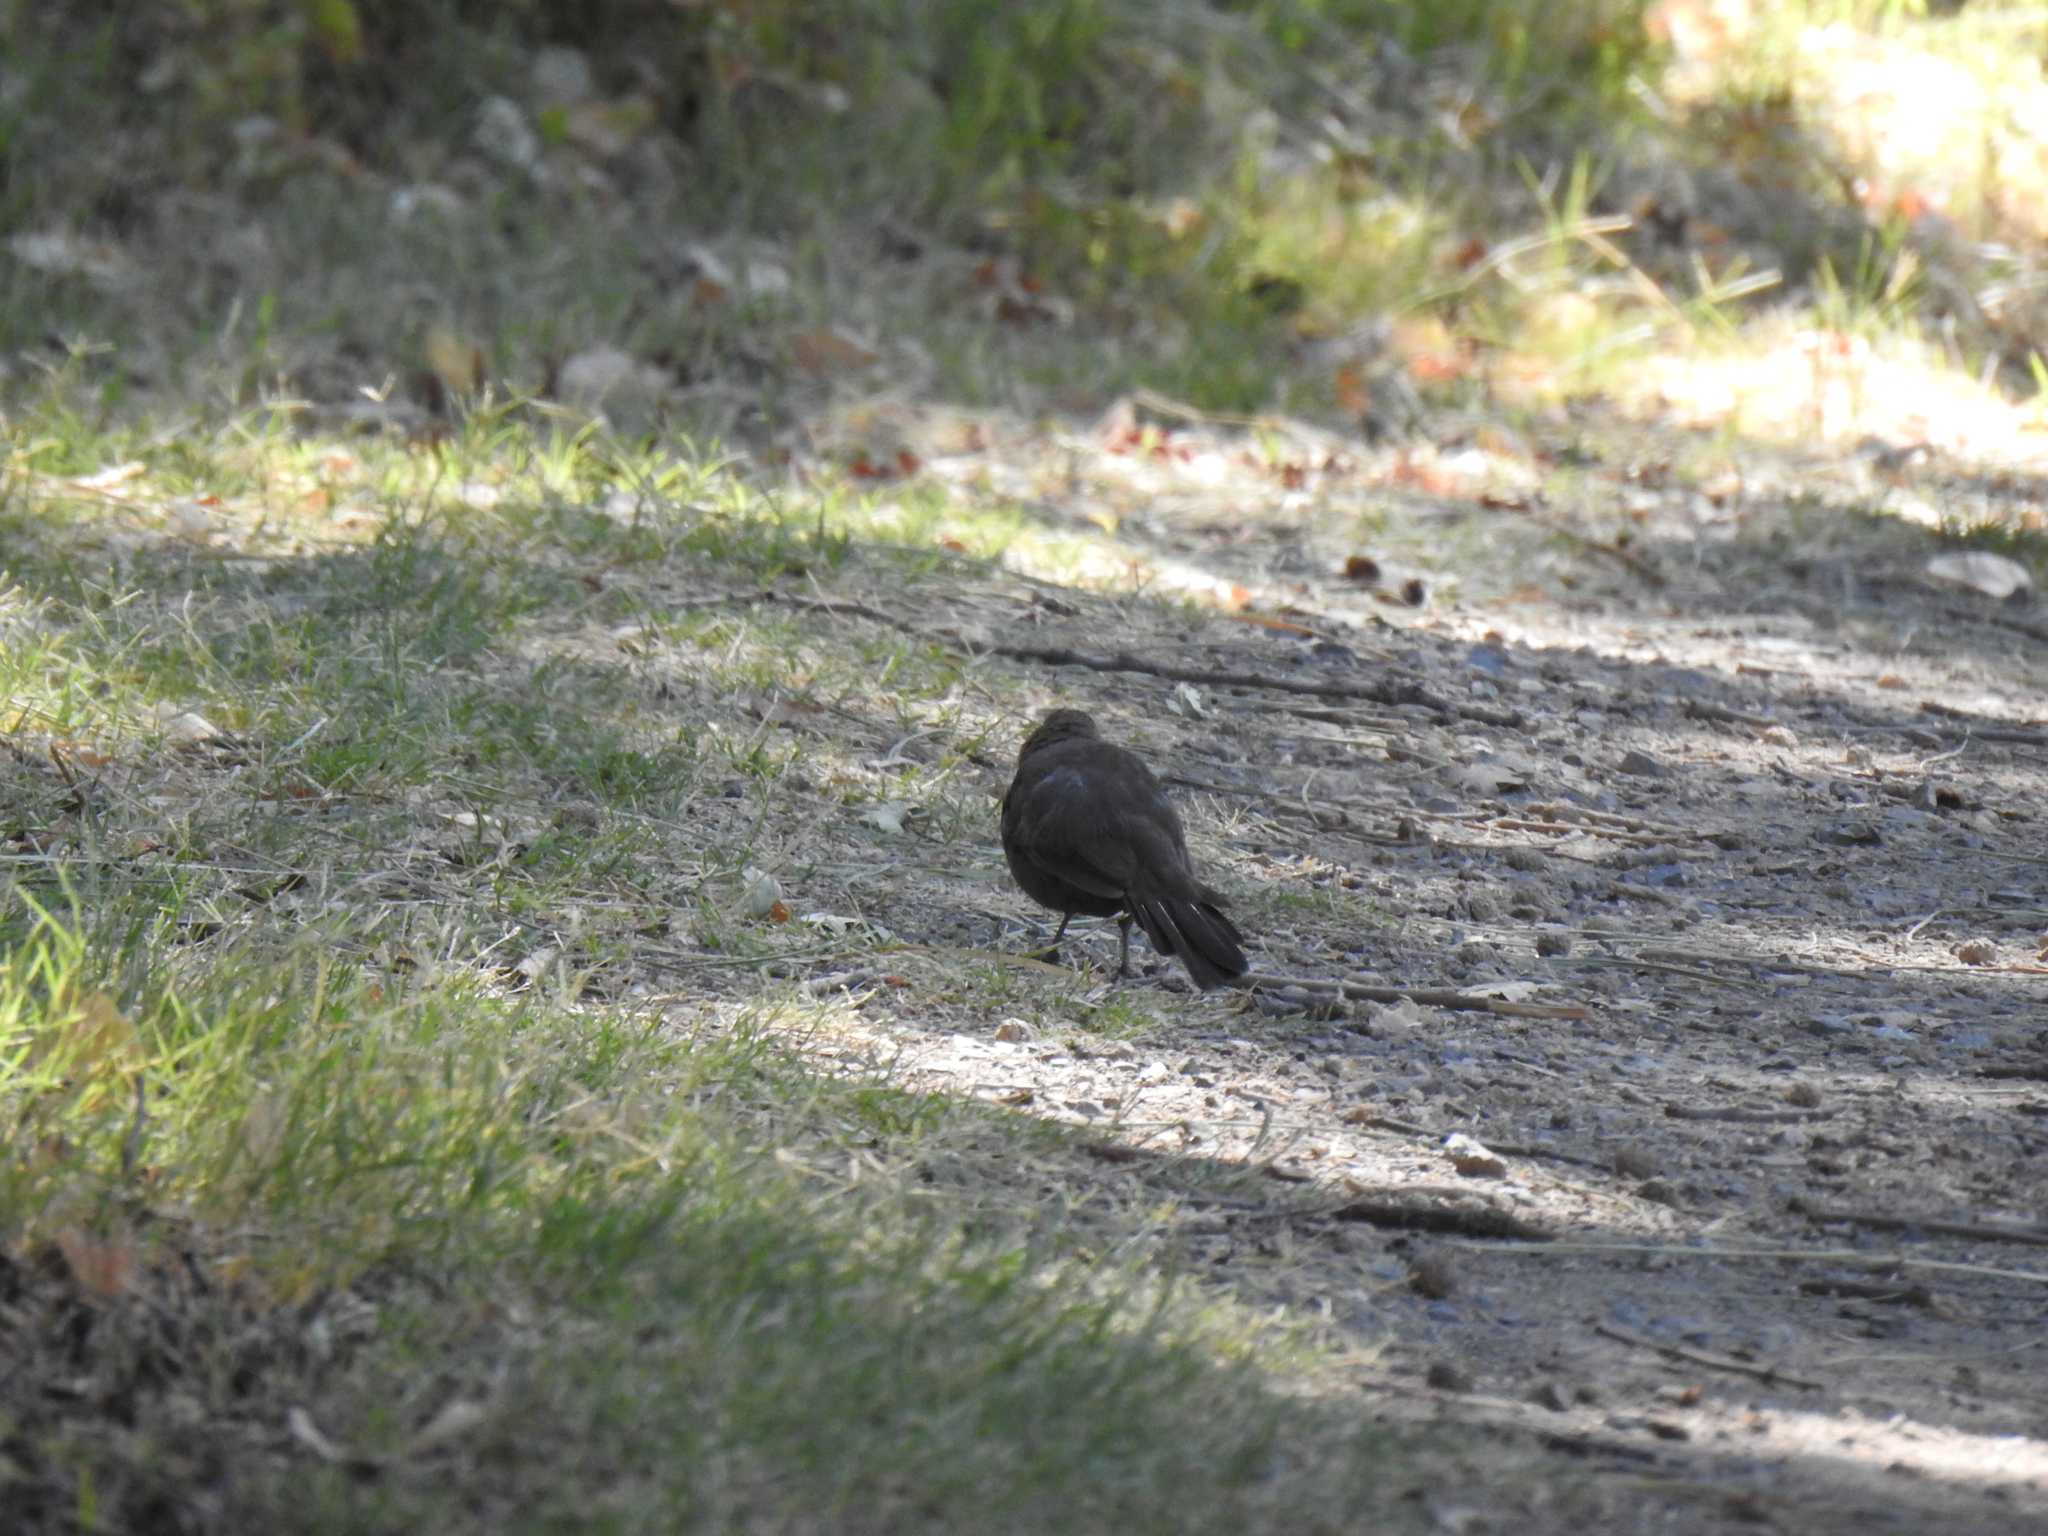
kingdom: Animalia
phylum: Chordata
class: Aves
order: Passeriformes
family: Passerellidae
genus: Melozone
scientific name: Melozone crissalis
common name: California towhee
